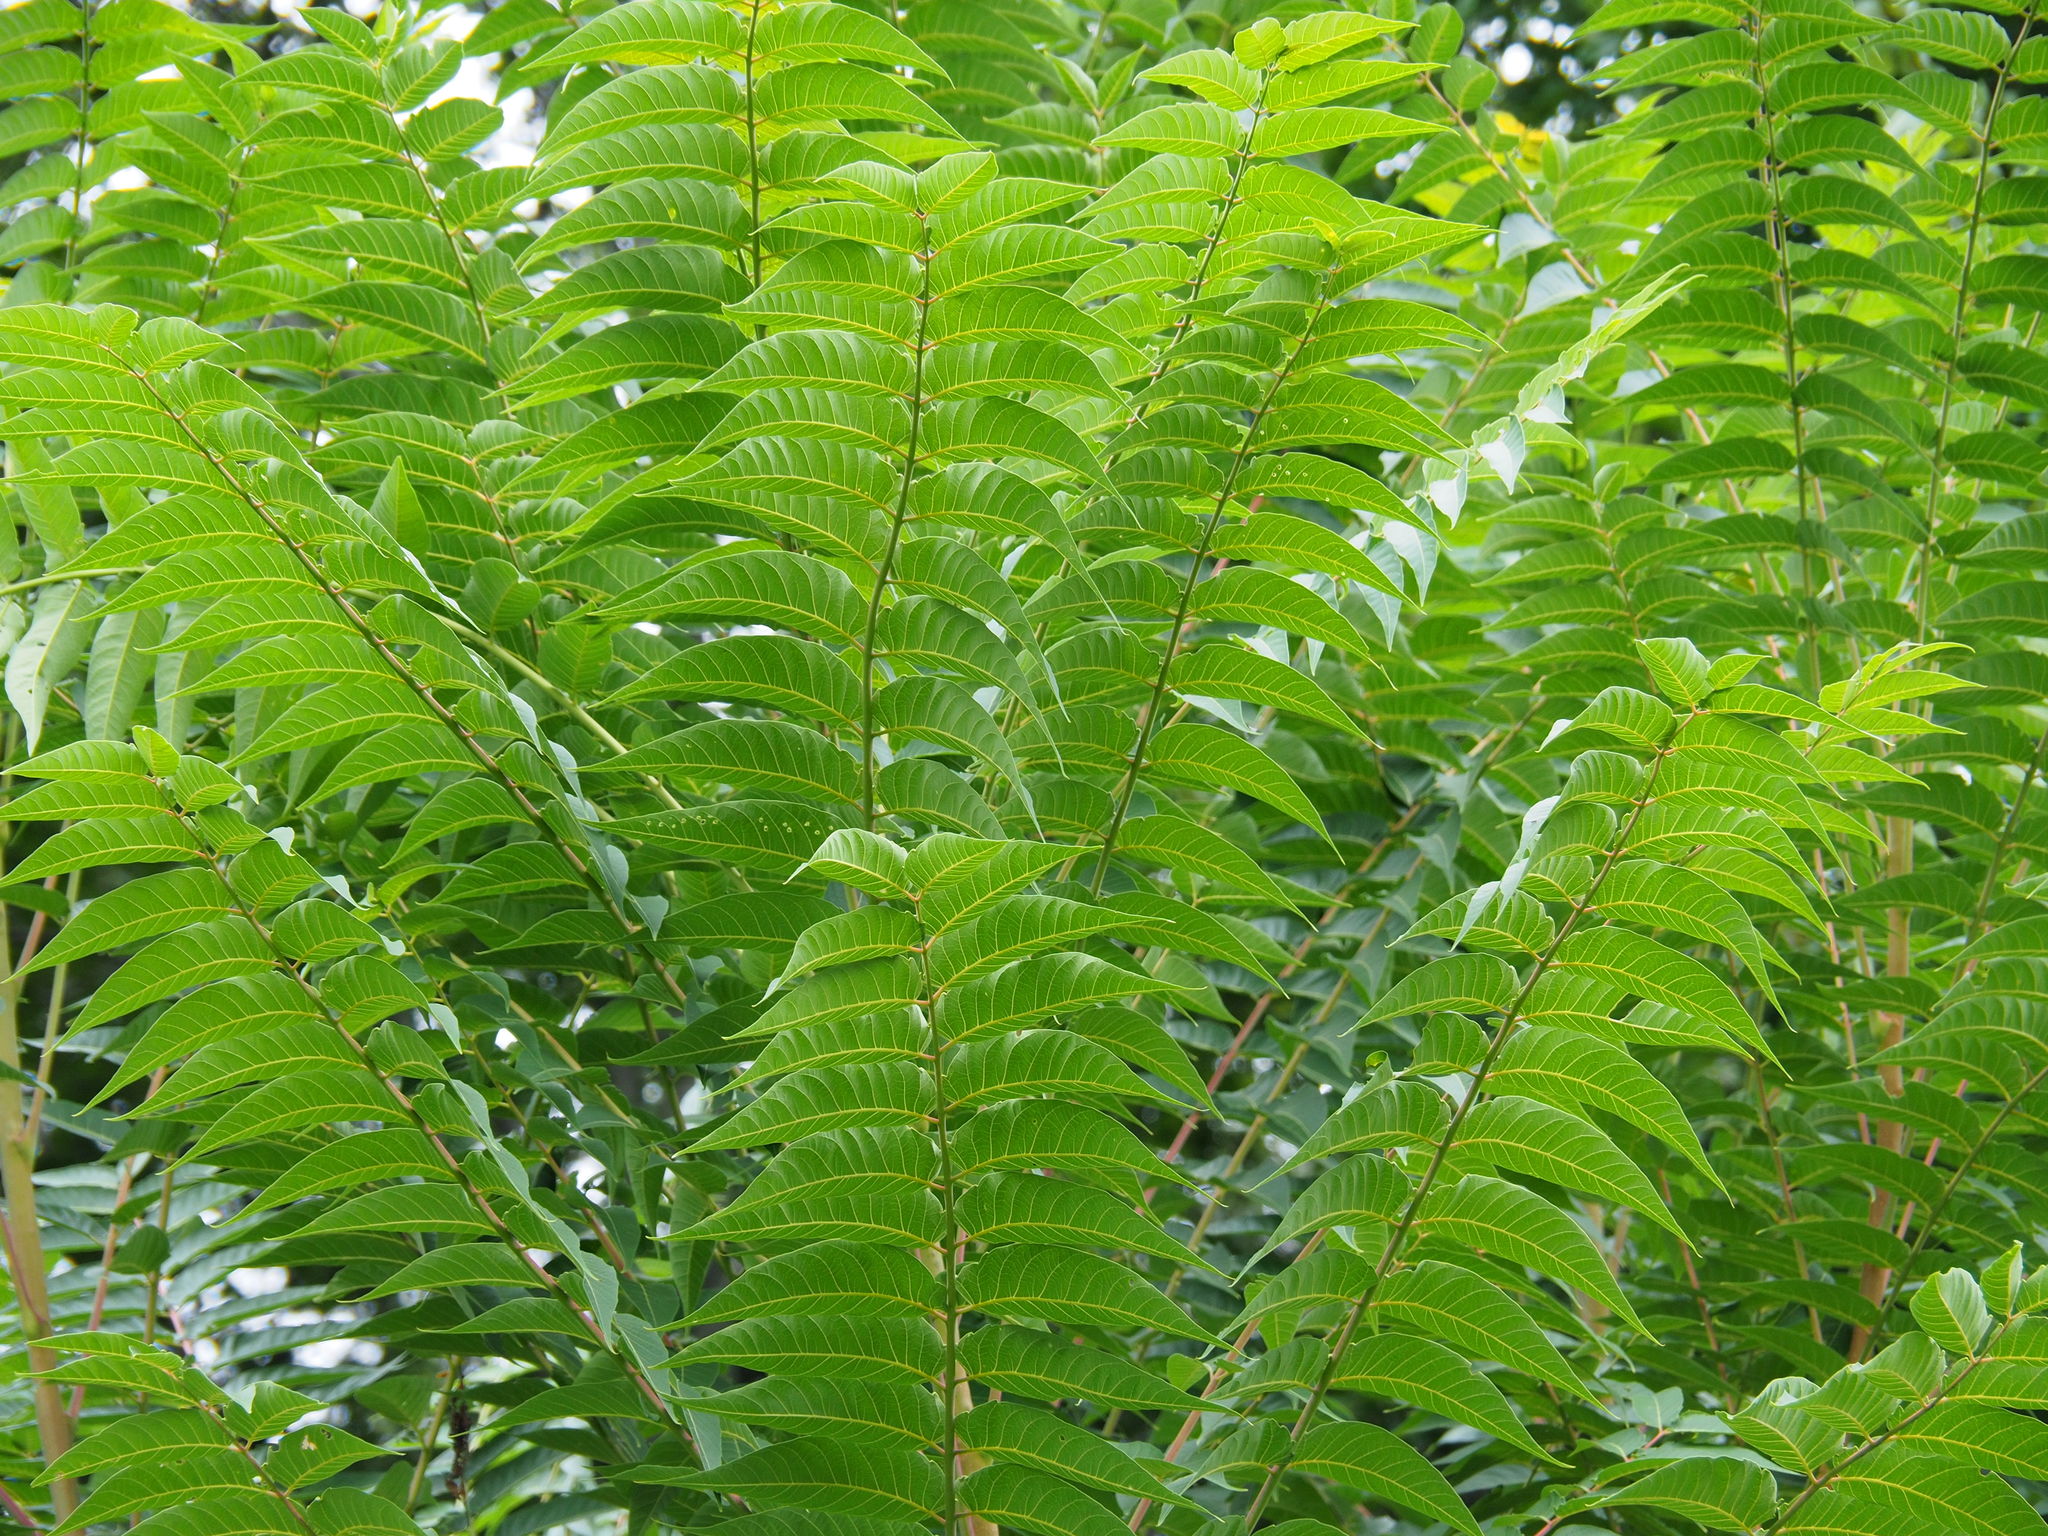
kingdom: Plantae
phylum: Tracheophyta
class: Magnoliopsida
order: Sapindales
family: Simaroubaceae
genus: Ailanthus
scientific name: Ailanthus altissima
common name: Tree-of-heaven
